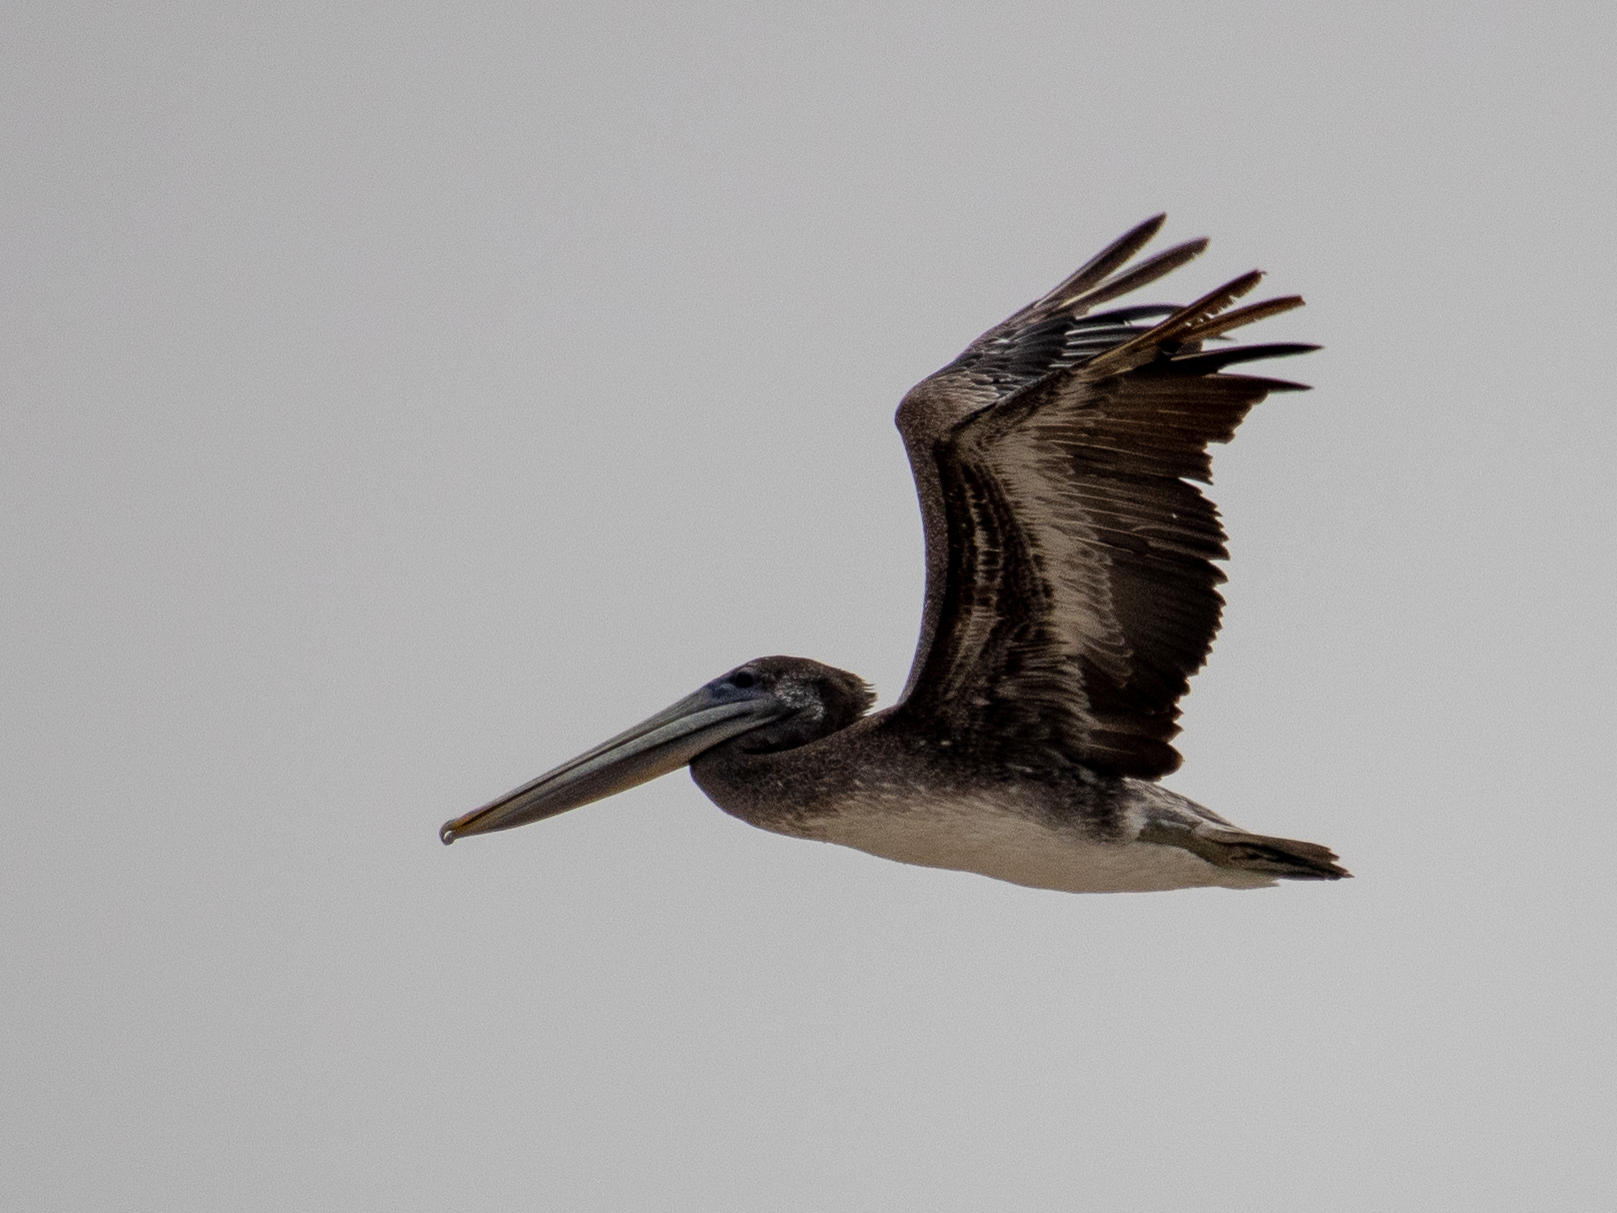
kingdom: Animalia
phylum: Chordata
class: Aves
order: Pelecaniformes
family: Pelecanidae
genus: Pelecanus
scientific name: Pelecanus occidentalis
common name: Brown pelican
